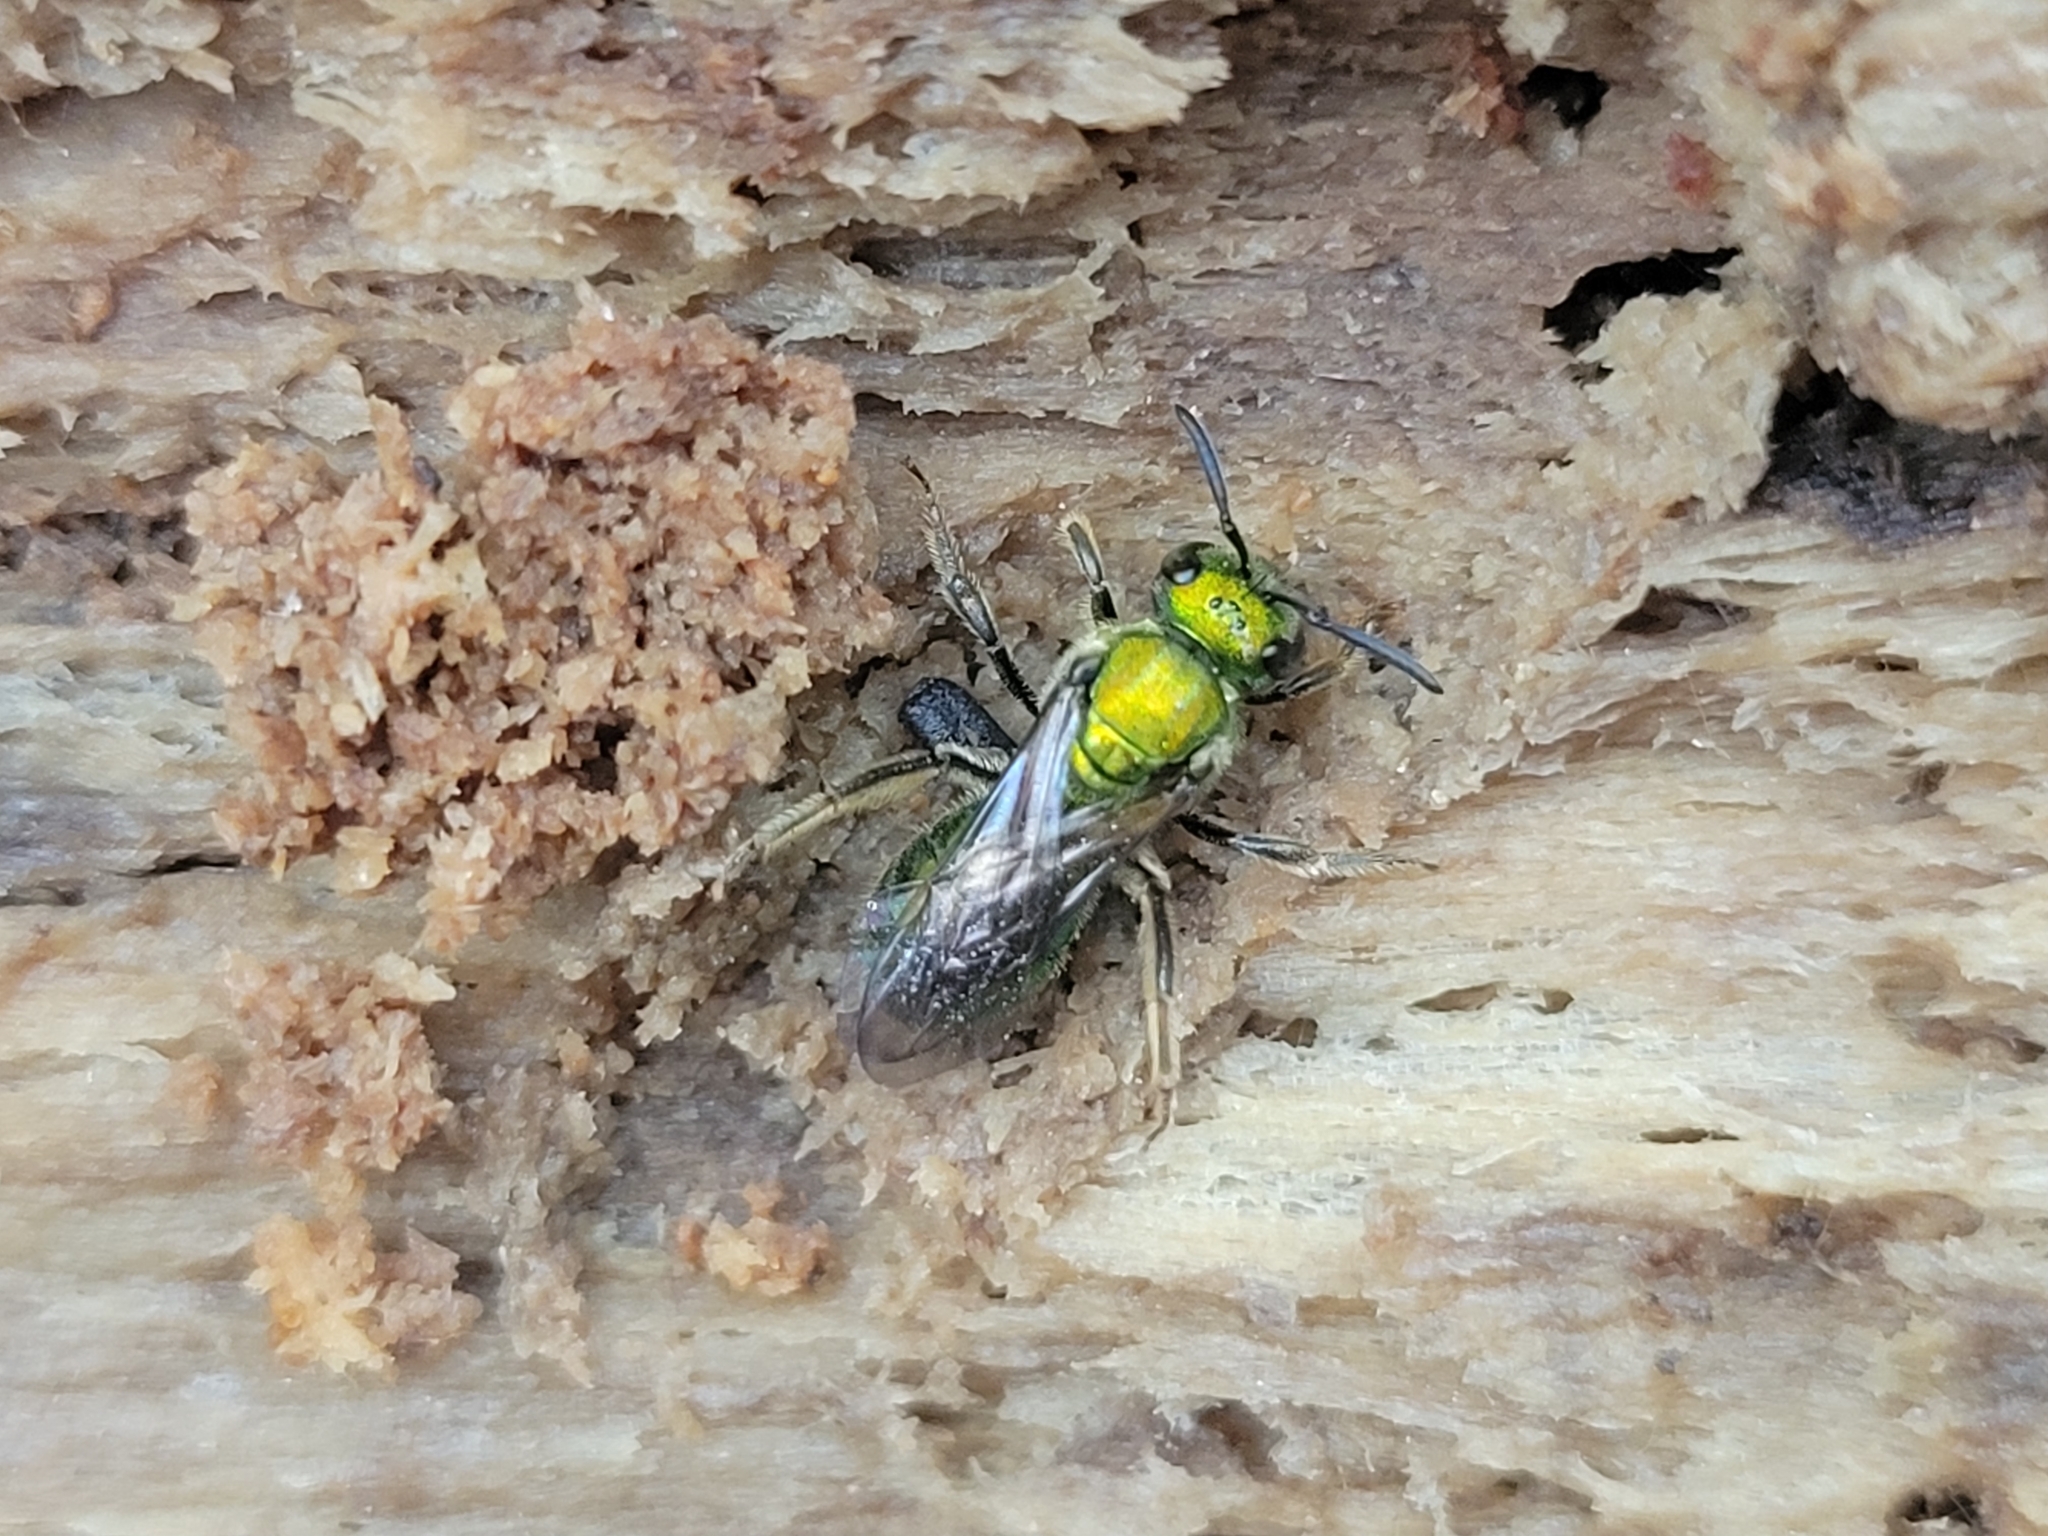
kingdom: Animalia
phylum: Arthropoda
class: Insecta
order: Hymenoptera
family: Halictidae
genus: Augochlora
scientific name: Augochlora pura
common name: Pure green sweat bee
